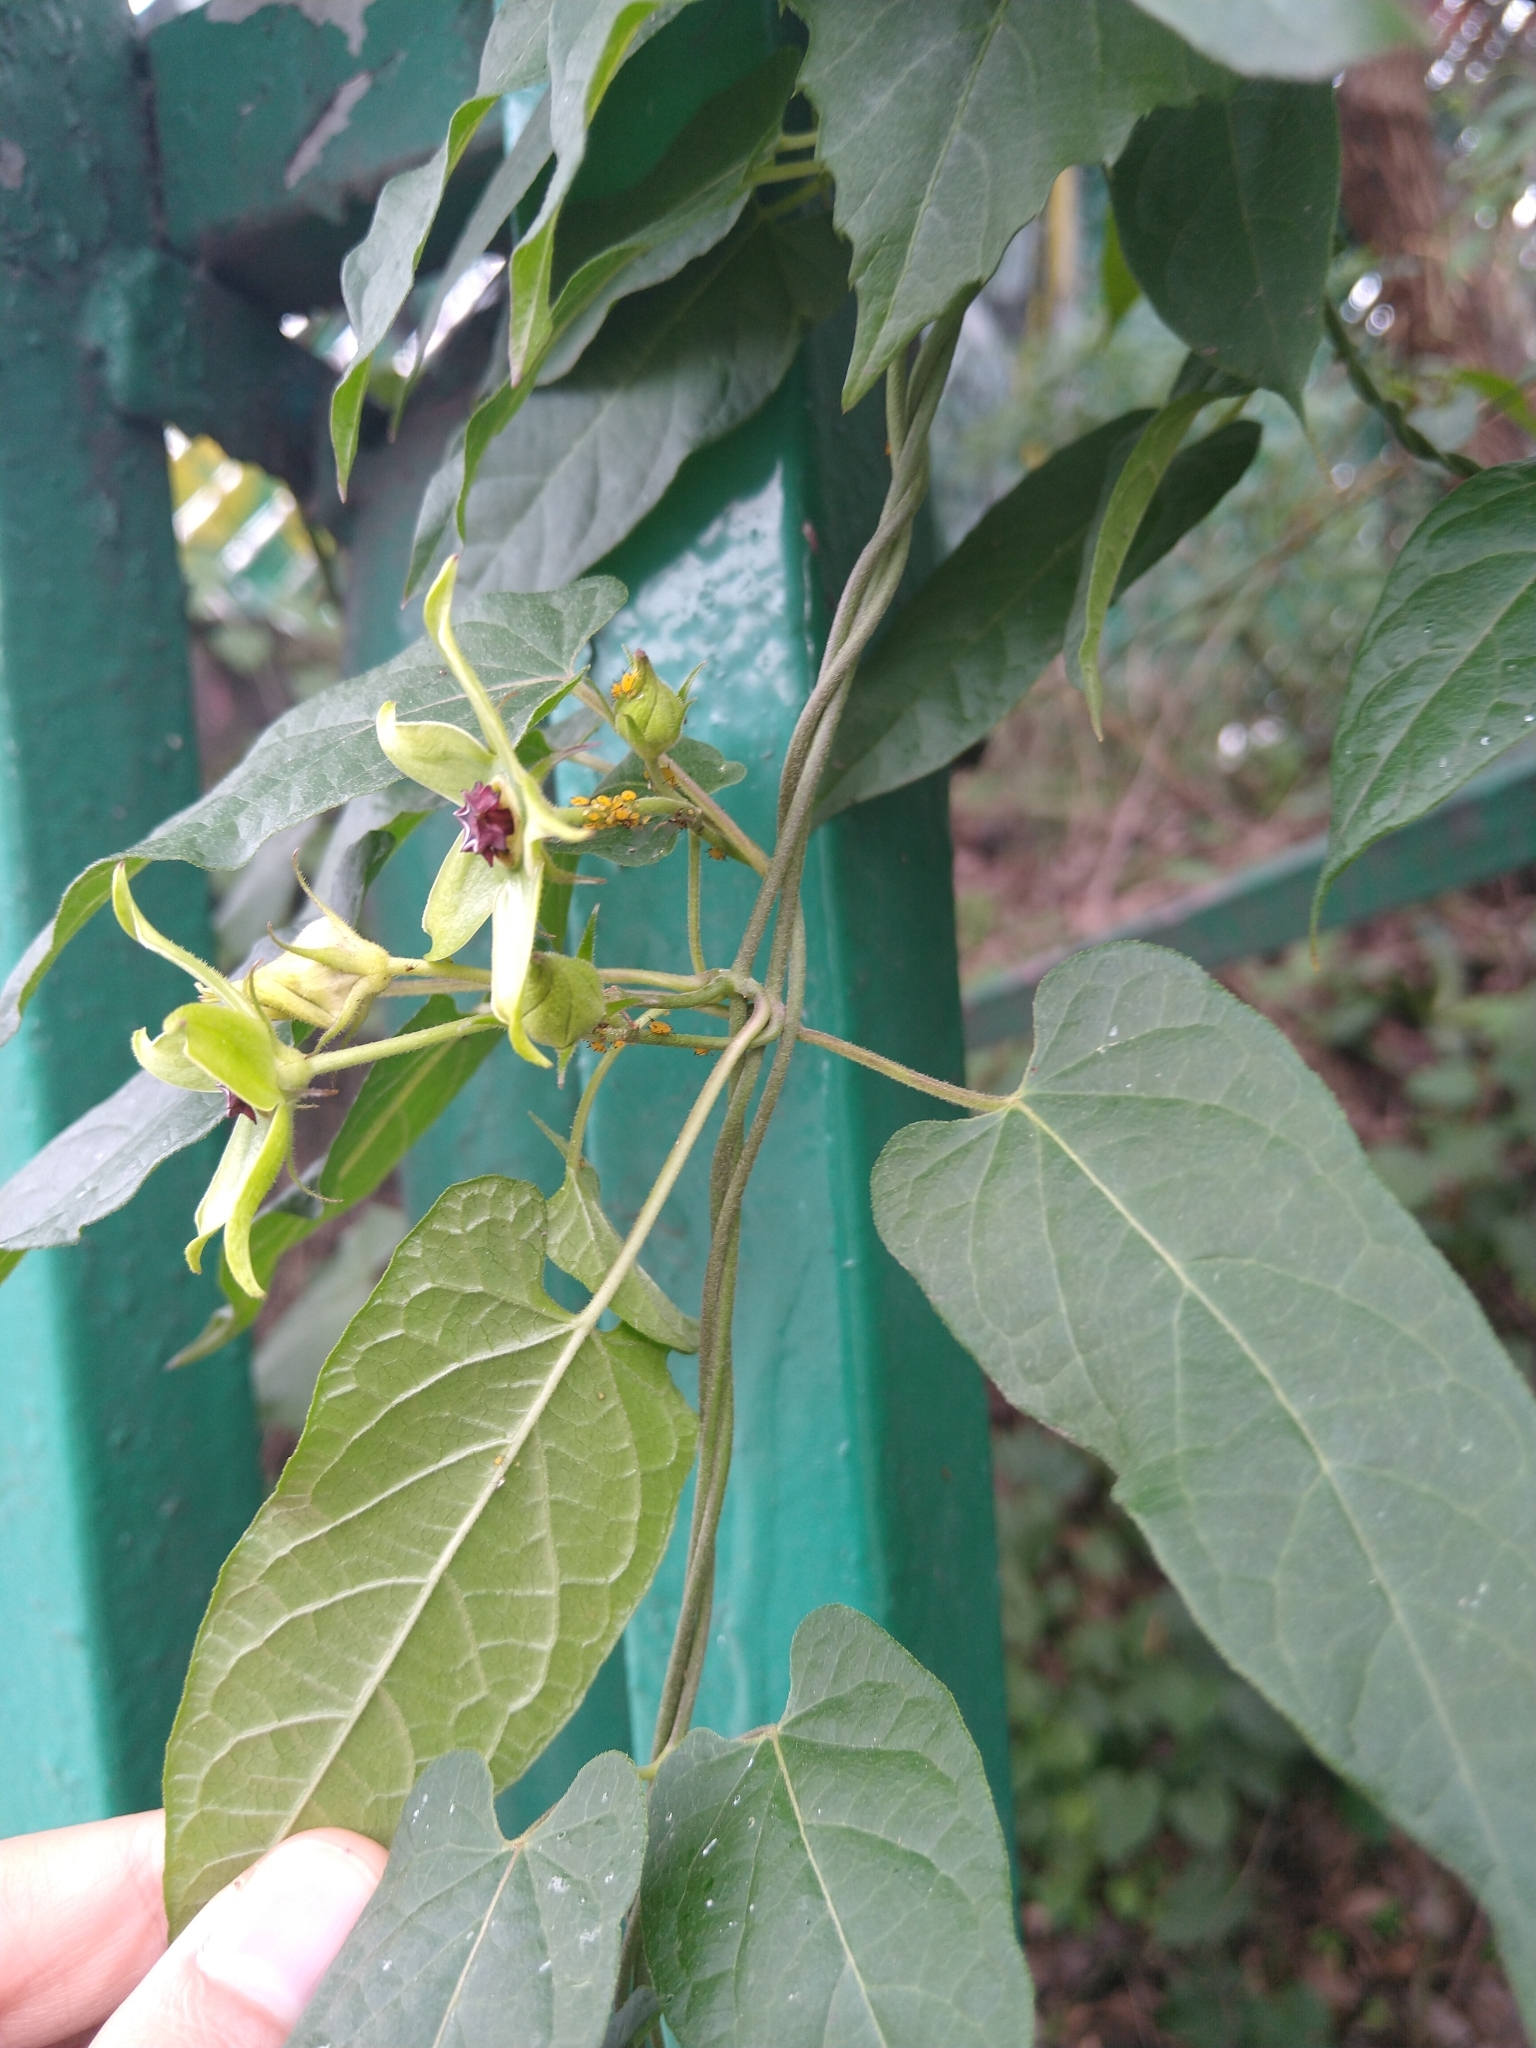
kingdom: Plantae
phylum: Tracheophyta
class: Magnoliopsida
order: Gentianales
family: Apocynaceae
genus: Gonolobus
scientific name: Gonolobus uniflorus
